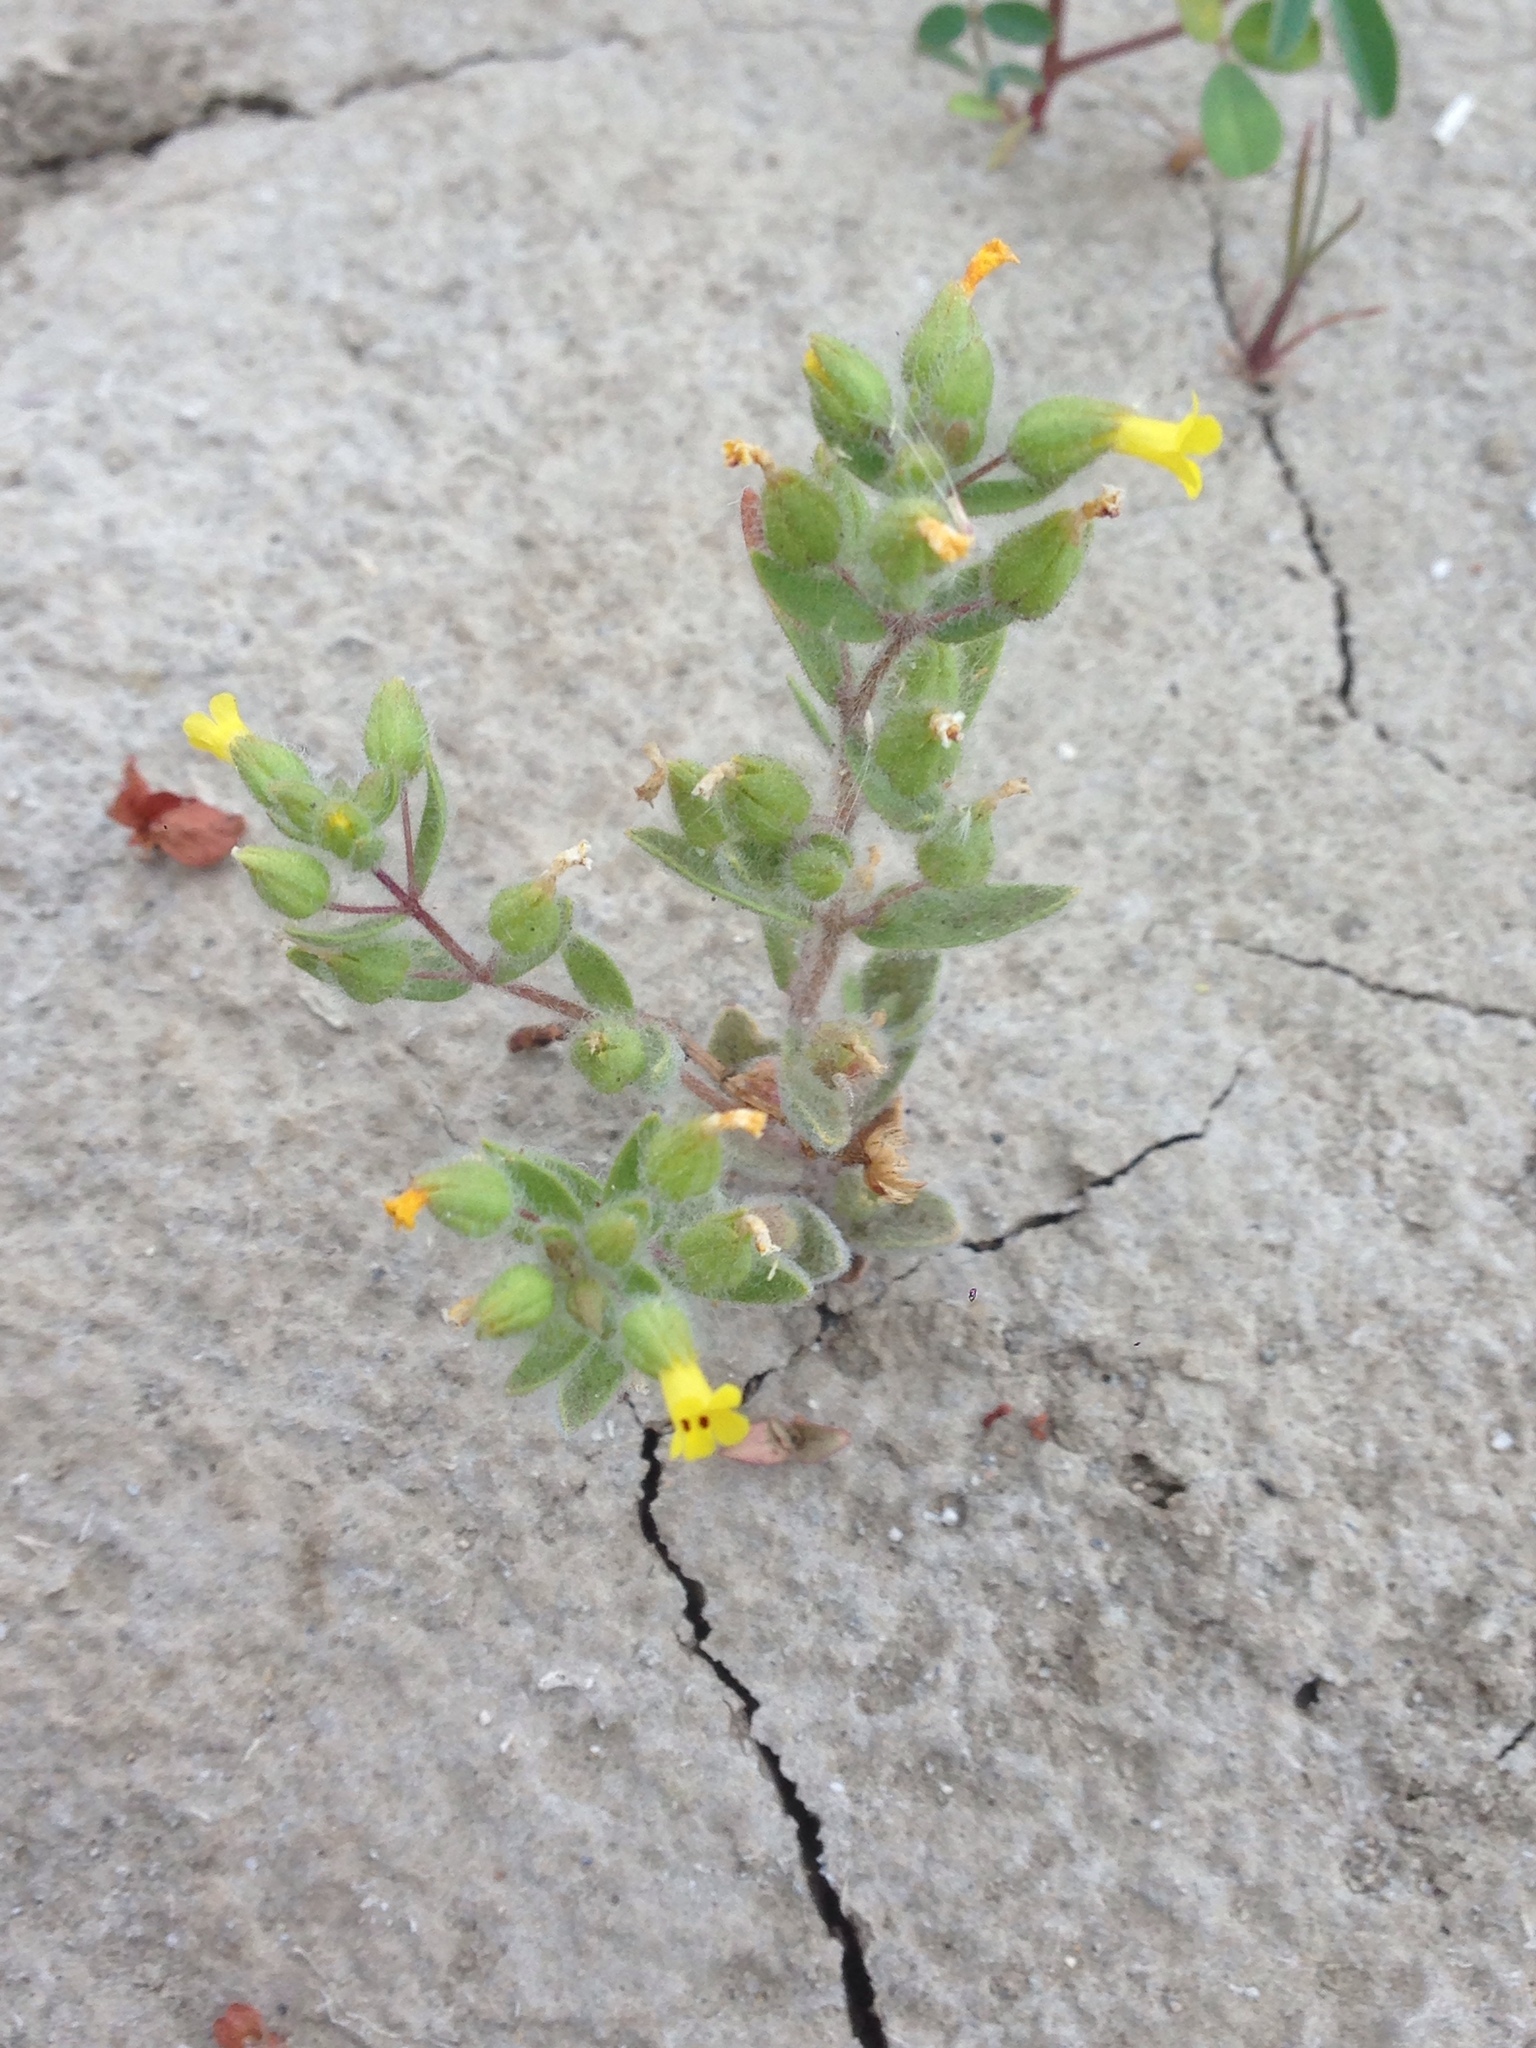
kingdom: Plantae
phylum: Tracheophyta
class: Magnoliopsida
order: Lamiales
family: Phrymaceae
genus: Mimetanthe
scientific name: Mimetanthe pilosa
